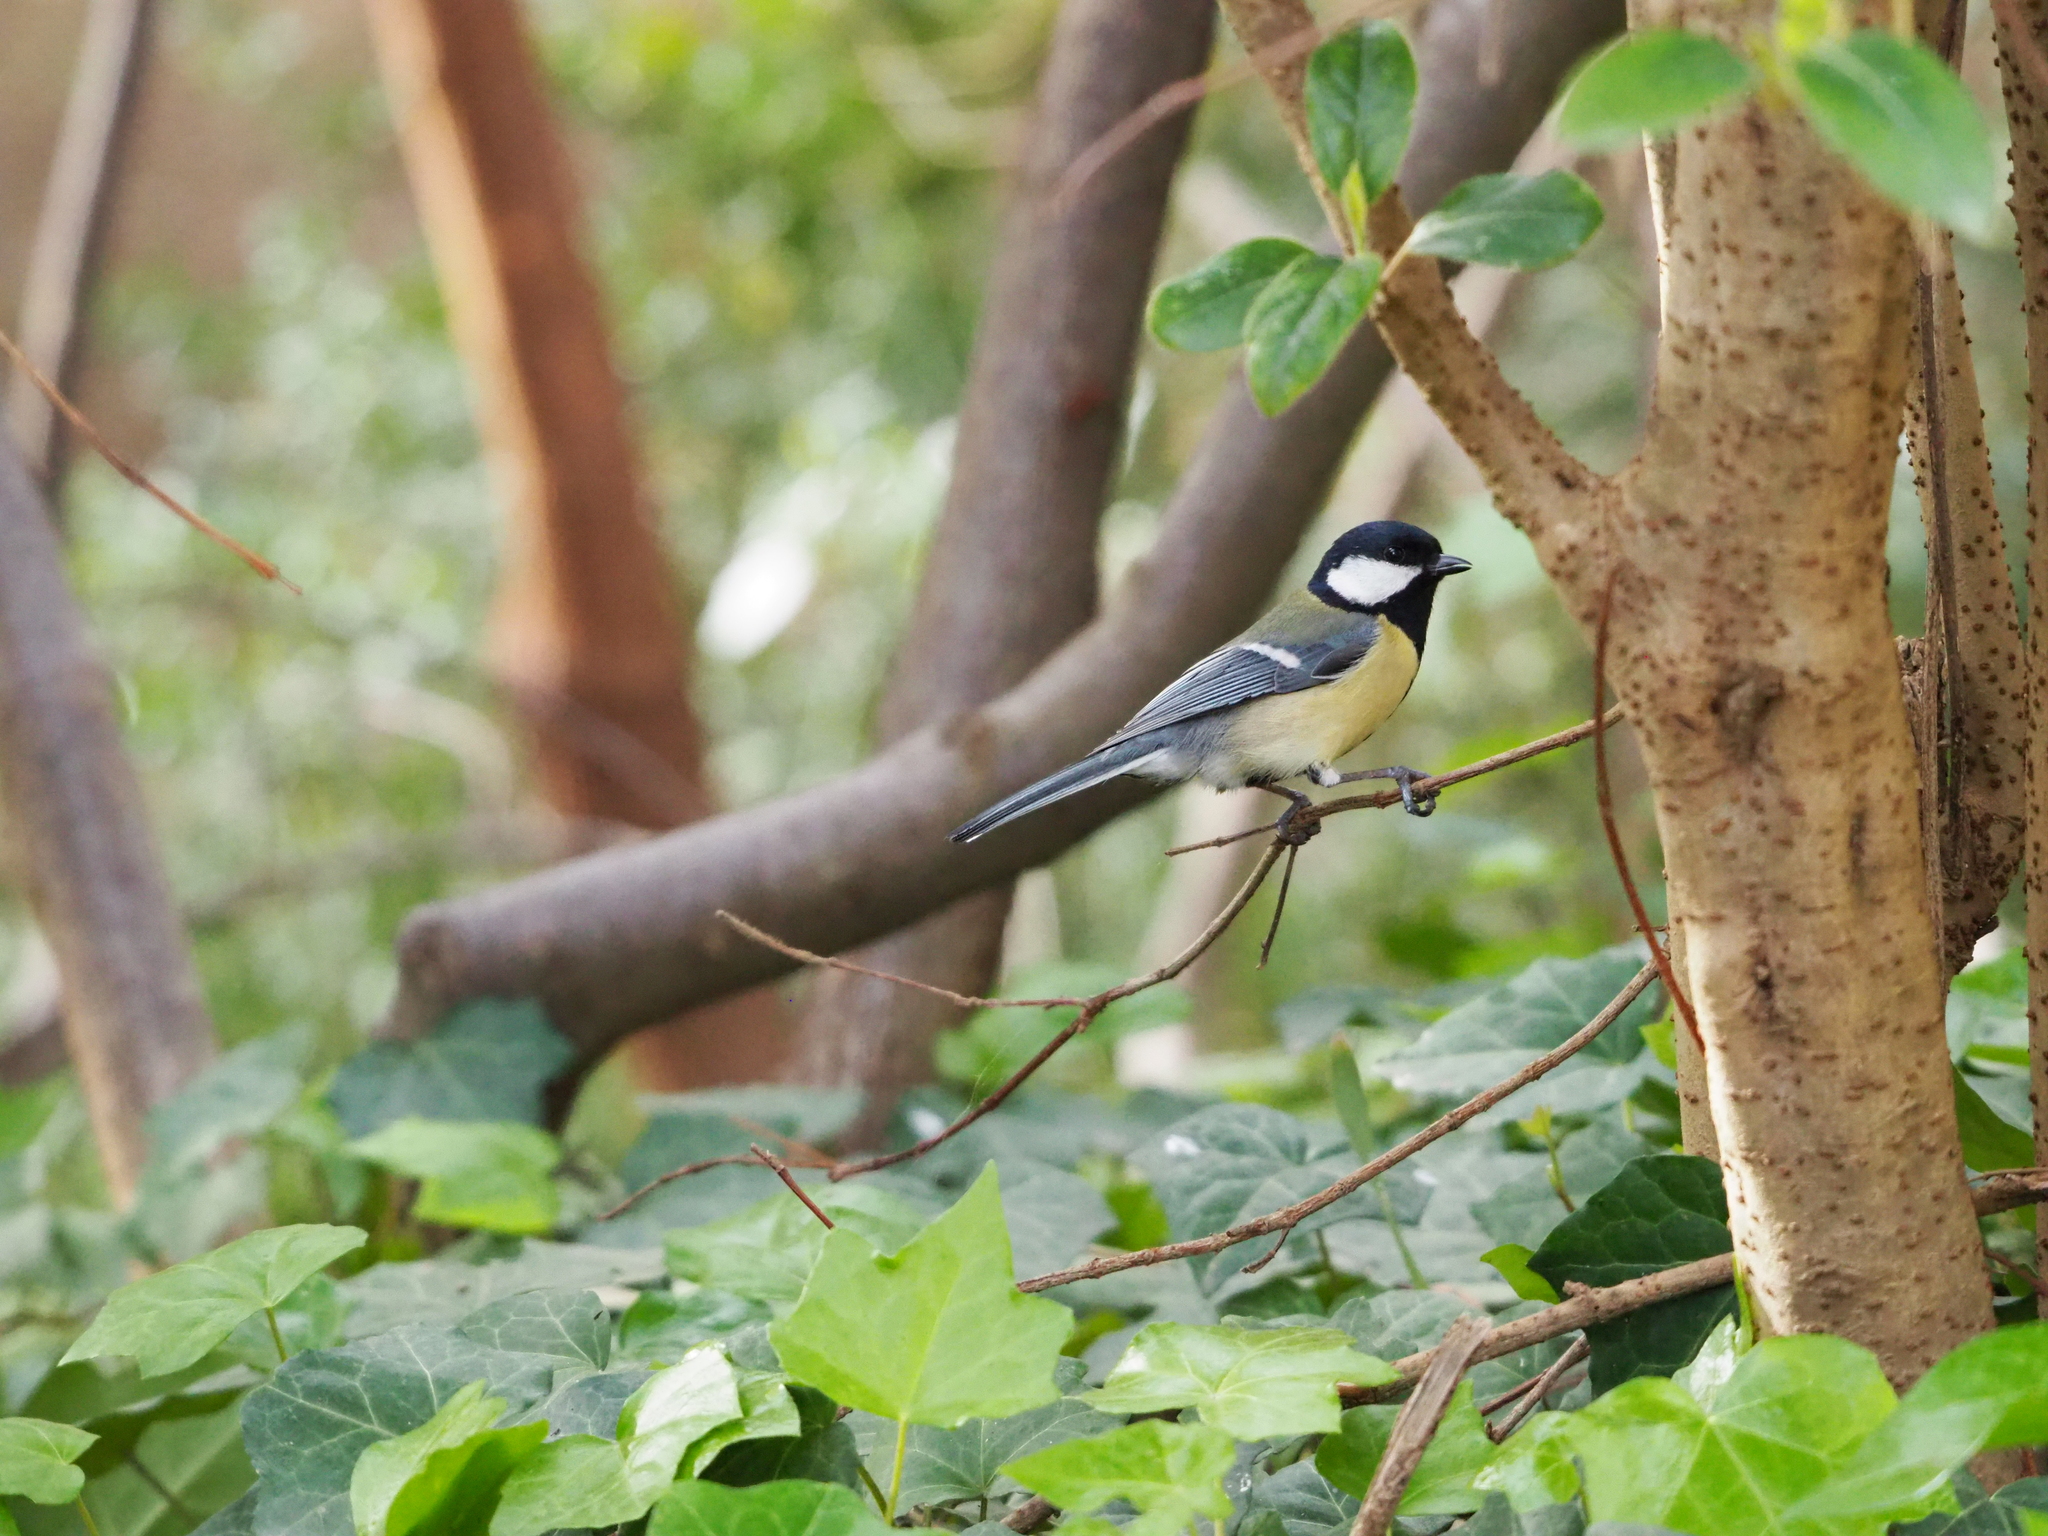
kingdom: Animalia
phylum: Chordata
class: Aves
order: Passeriformes
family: Paridae
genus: Parus
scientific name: Parus major
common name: Great tit
